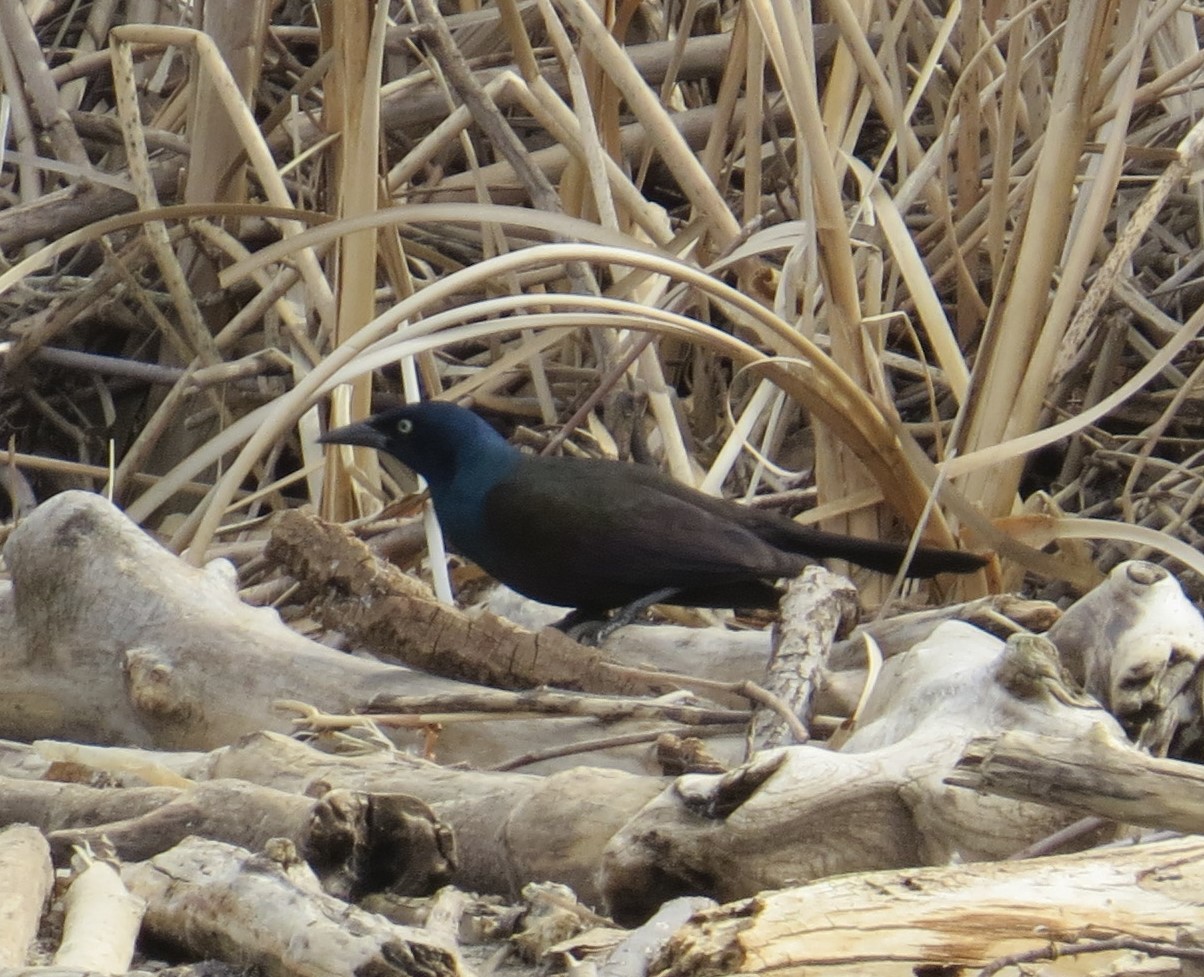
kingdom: Animalia
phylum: Chordata
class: Aves
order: Passeriformes
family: Icteridae
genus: Quiscalus
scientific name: Quiscalus quiscula
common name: Common grackle
